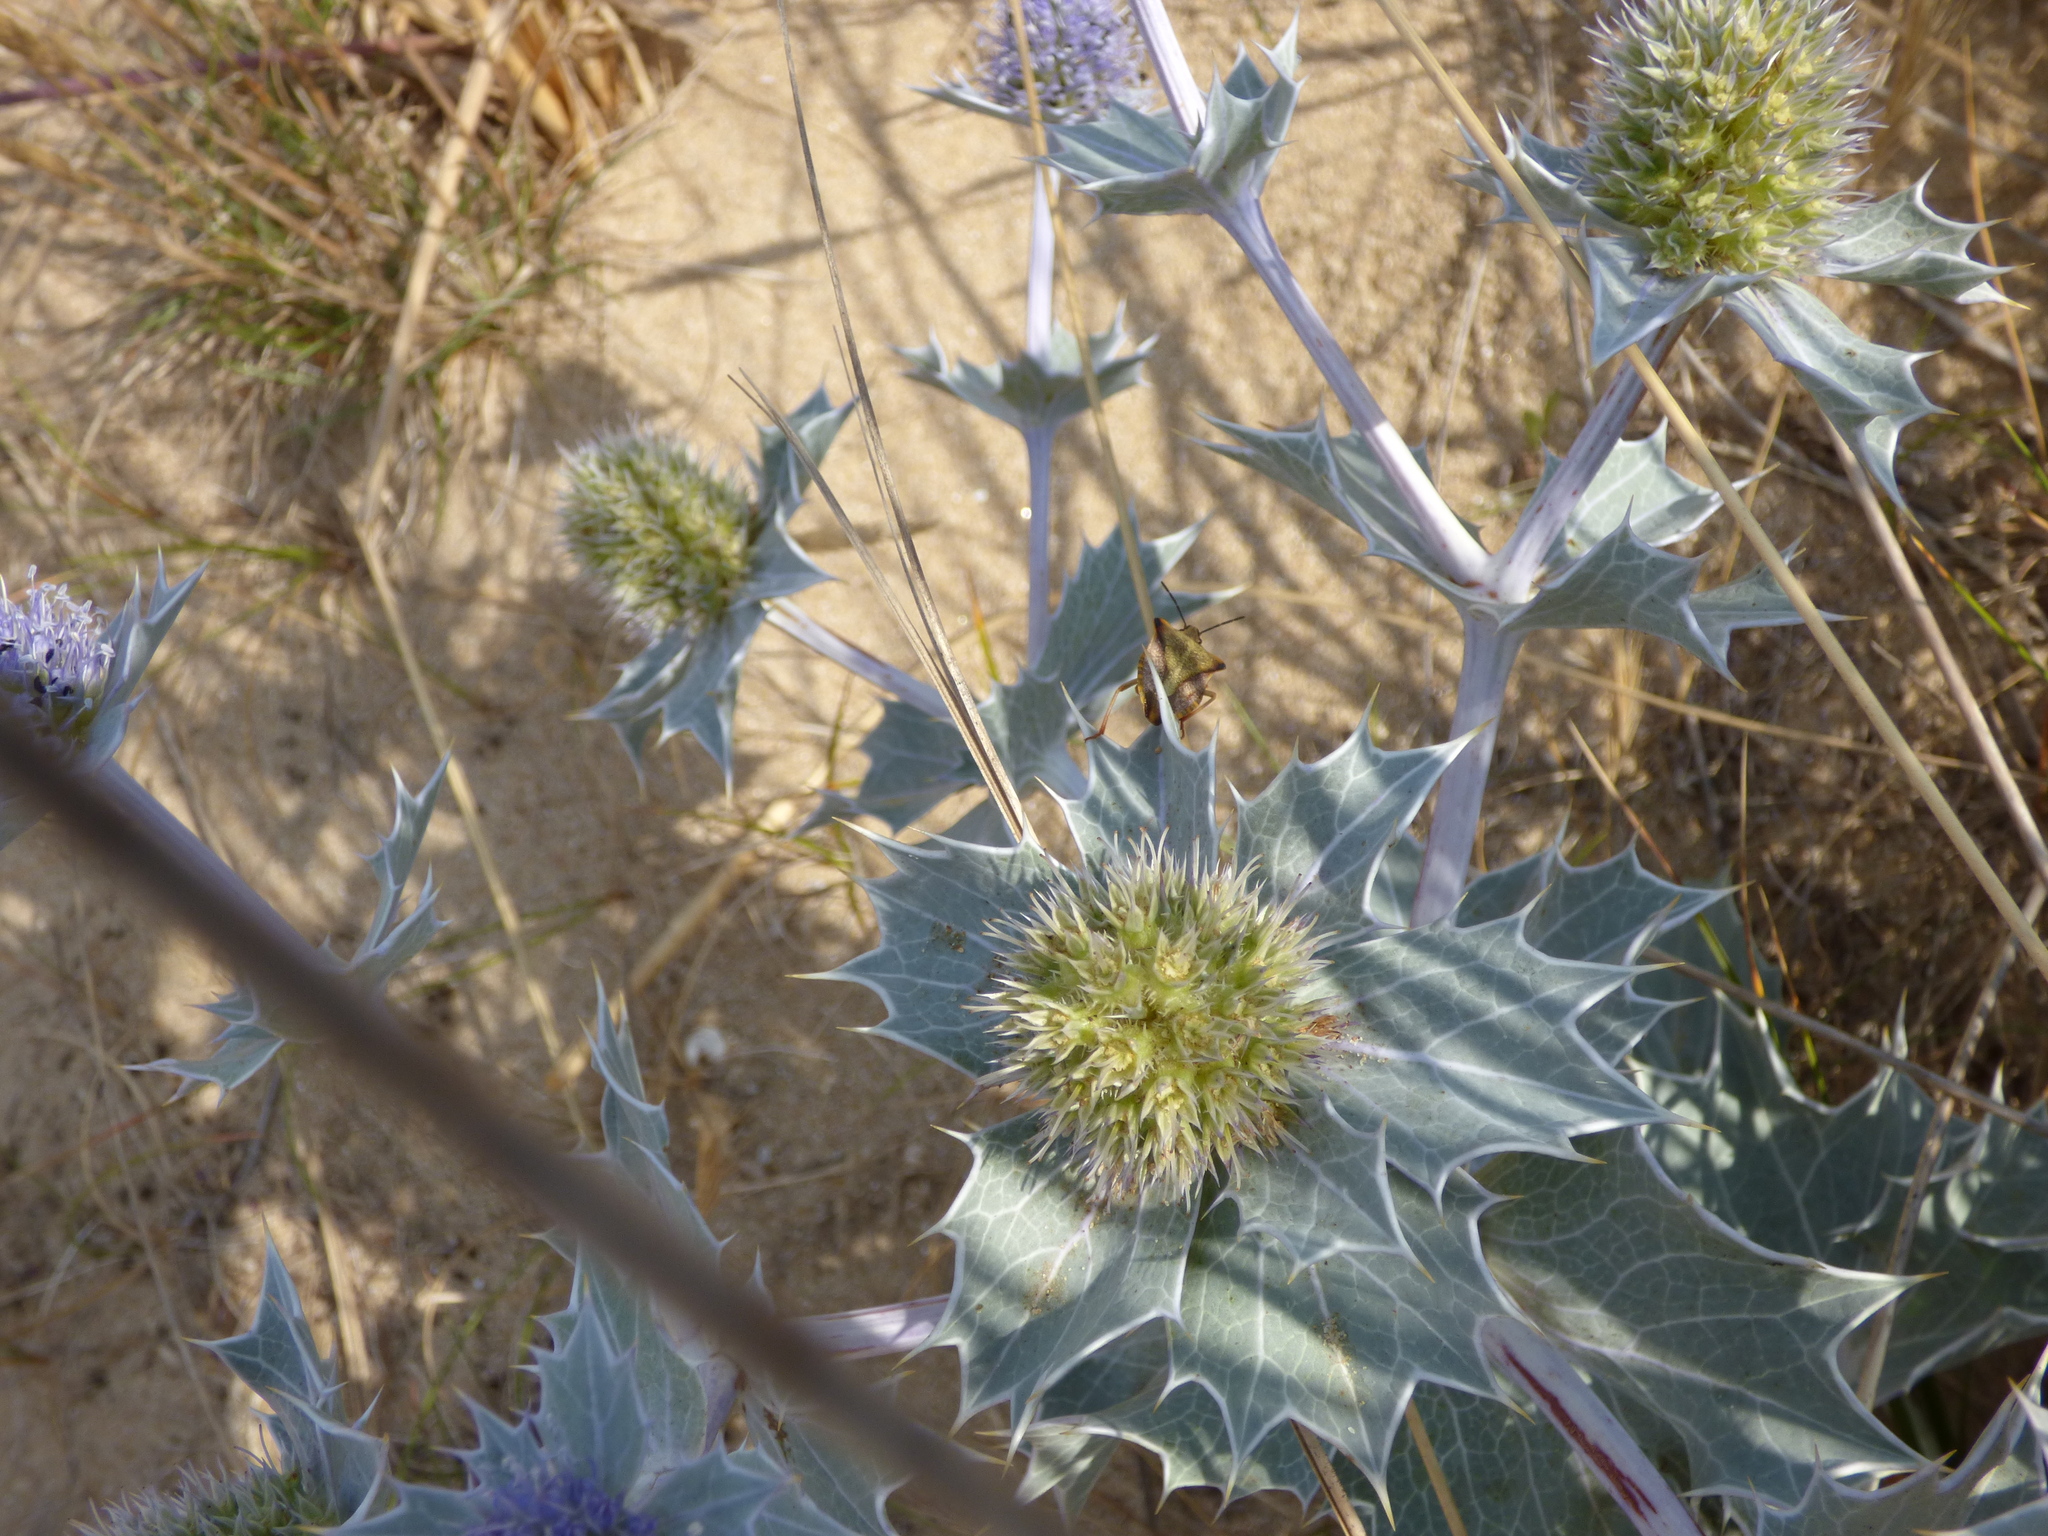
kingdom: Plantae
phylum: Tracheophyta
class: Magnoliopsida
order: Apiales
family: Apiaceae
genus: Eryngium
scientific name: Eryngium maritimum
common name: Sea-holly
